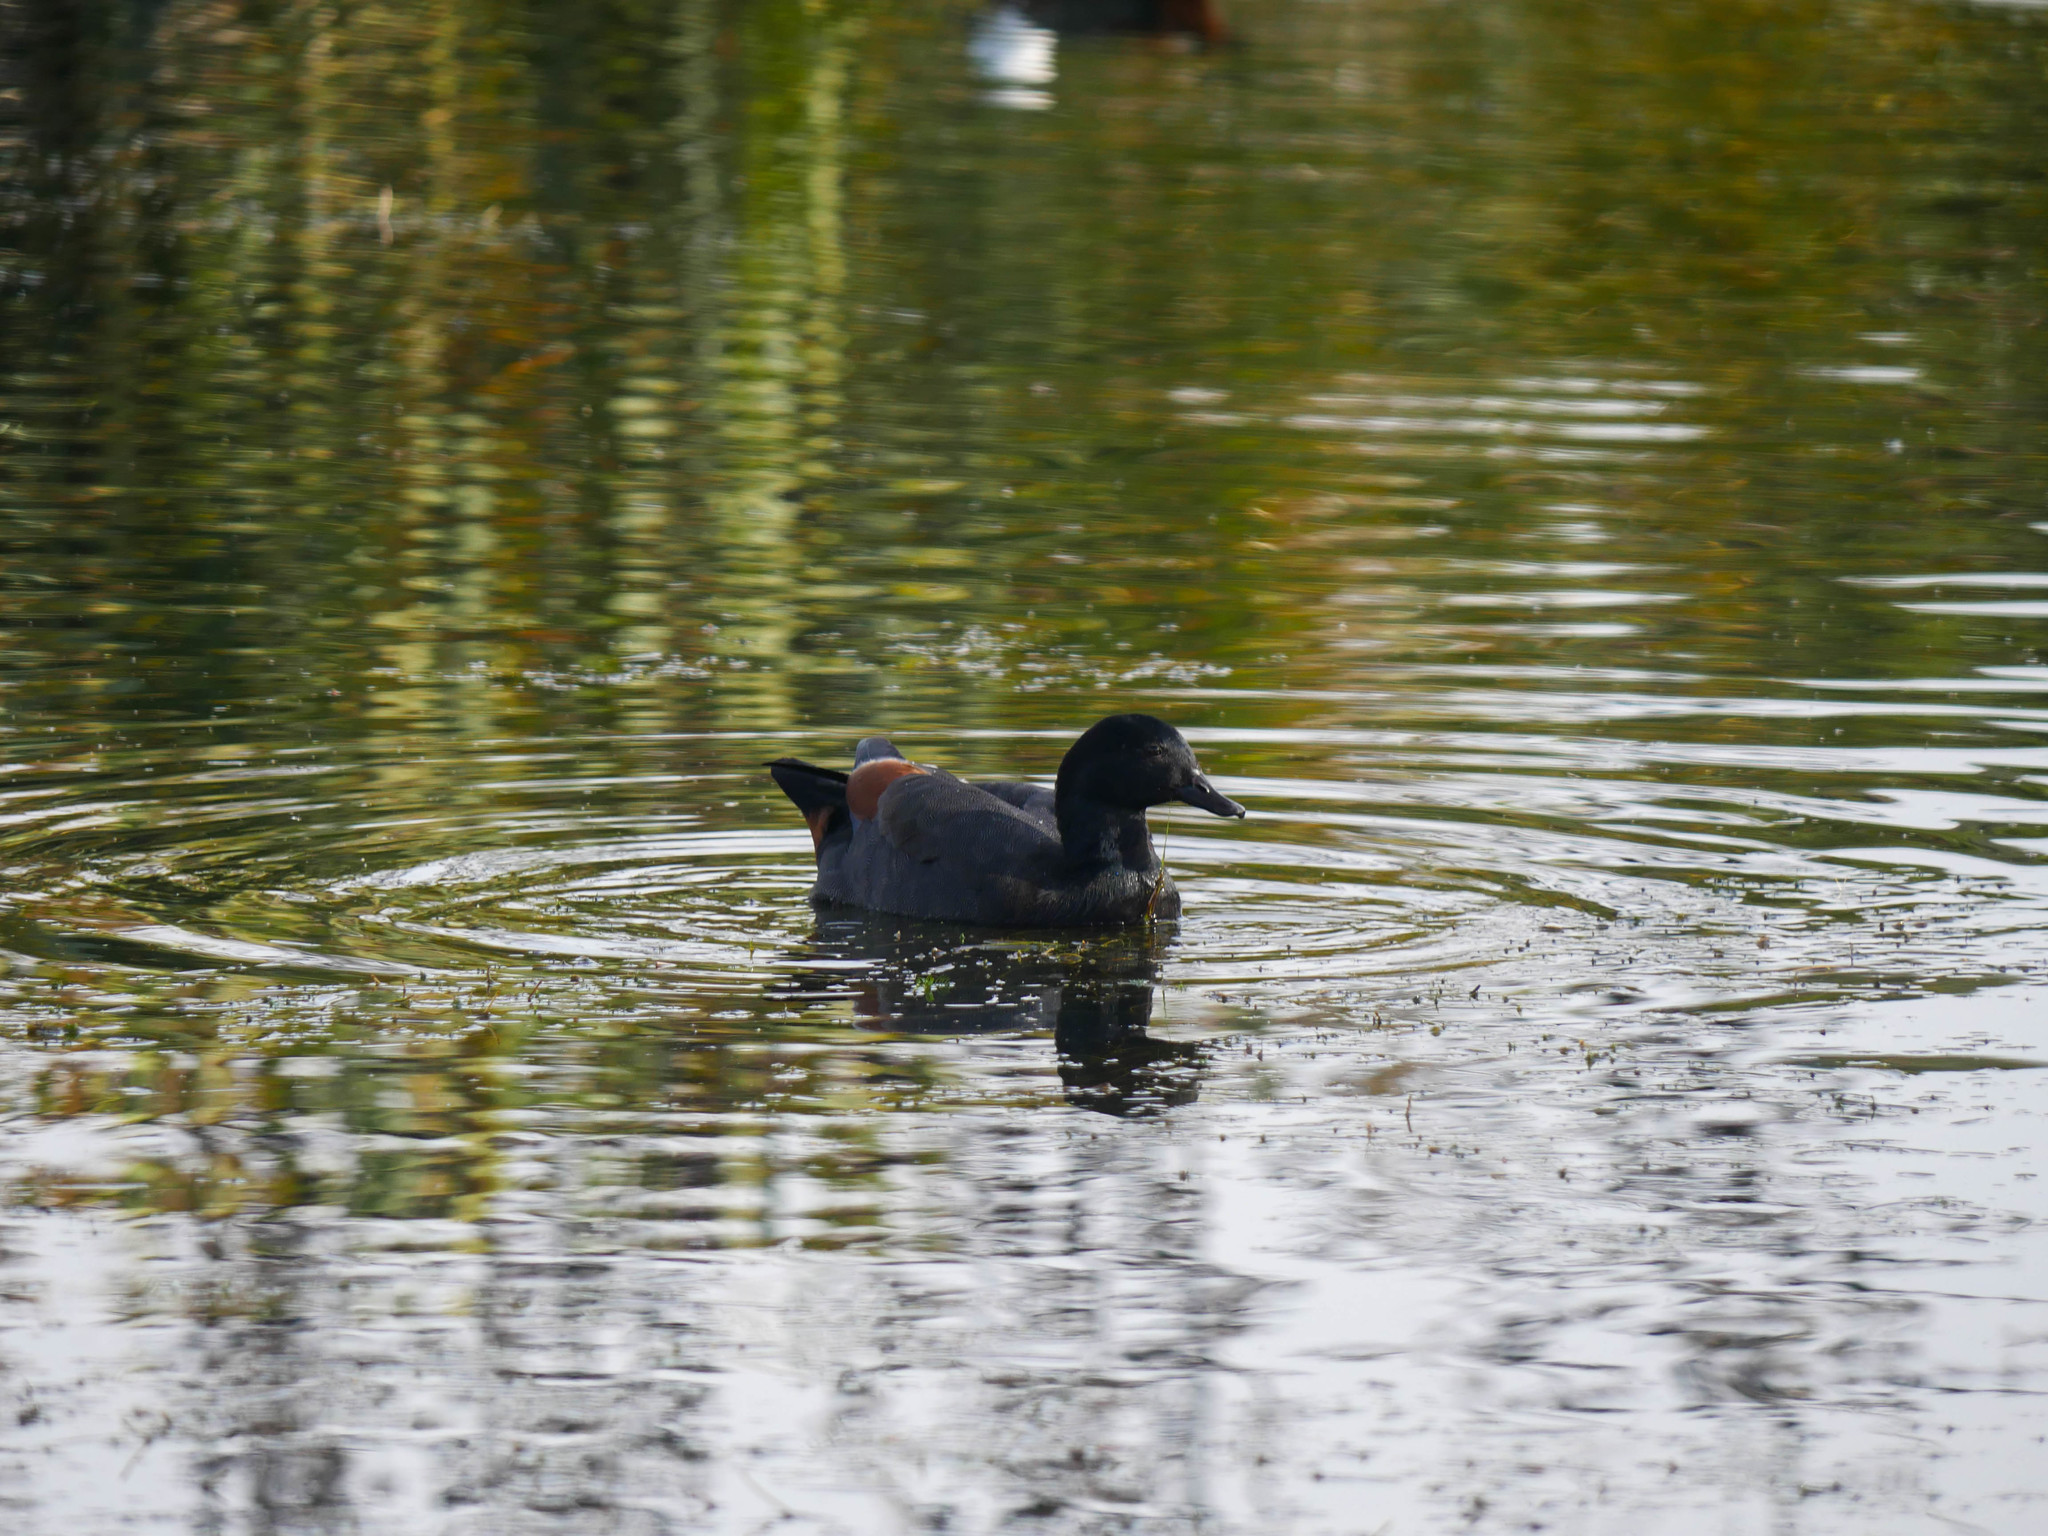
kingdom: Animalia
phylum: Chordata
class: Aves
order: Anseriformes
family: Anatidae
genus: Tadorna
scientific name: Tadorna variegata
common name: Paradise shelduck
